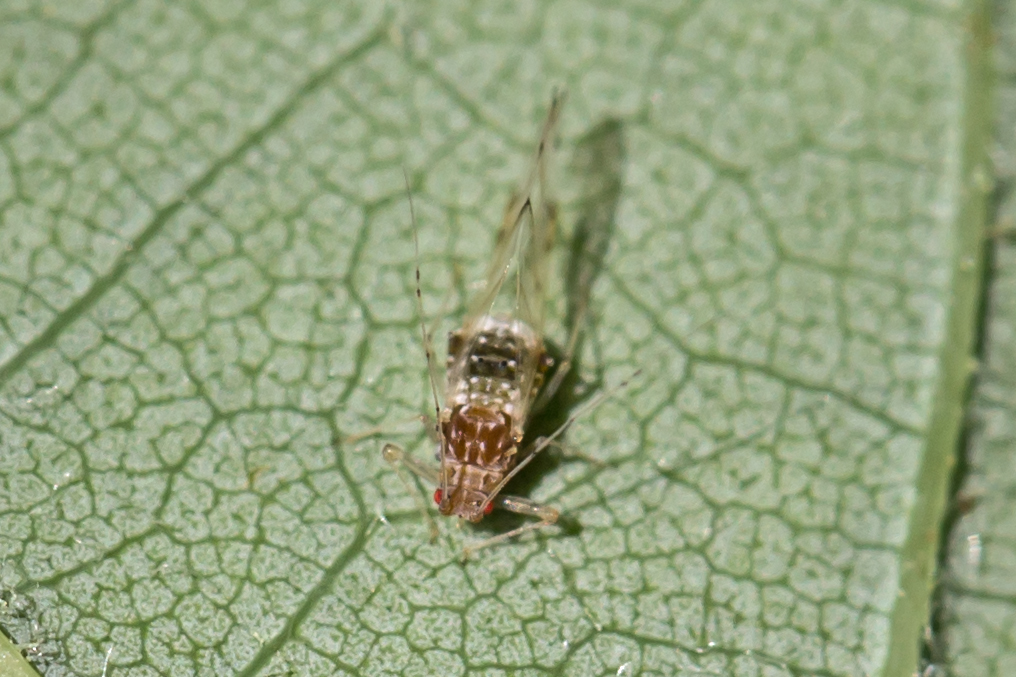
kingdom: Animalia
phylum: Arthropoda
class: Insecta
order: Hemiptera
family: Aphididae
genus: Drepanaphis
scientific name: Drepanaphis acerifoliae
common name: Painted maple aphid
